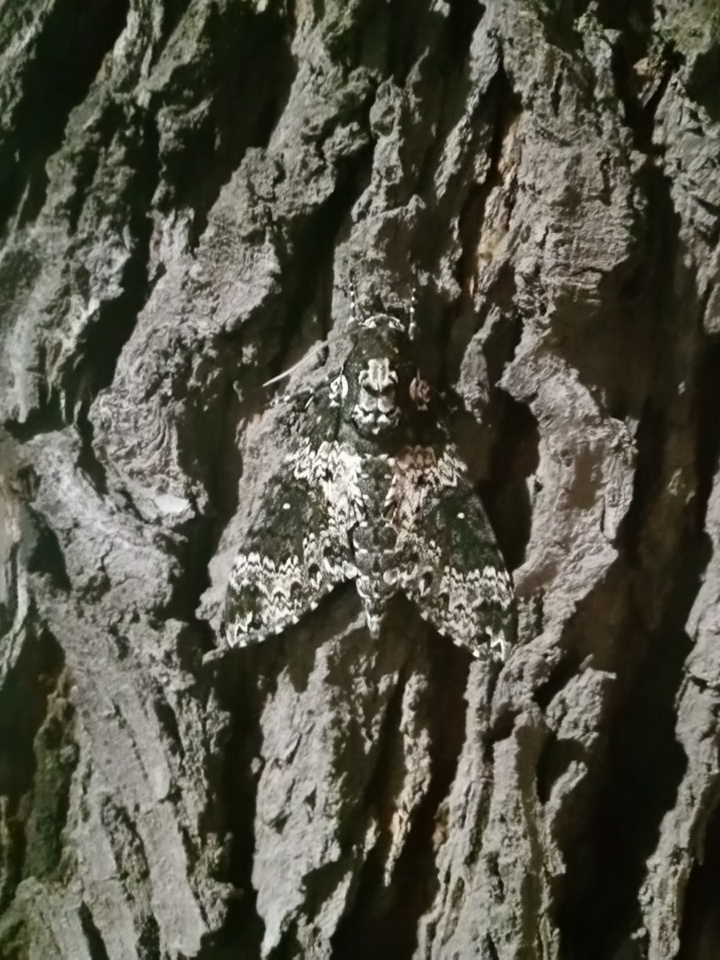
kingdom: Animalia
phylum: Arthropoda
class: Insecta
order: Lepidoptera
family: Sphingidae
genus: Manduca
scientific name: Manduca rustica
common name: Rustic sphinx
